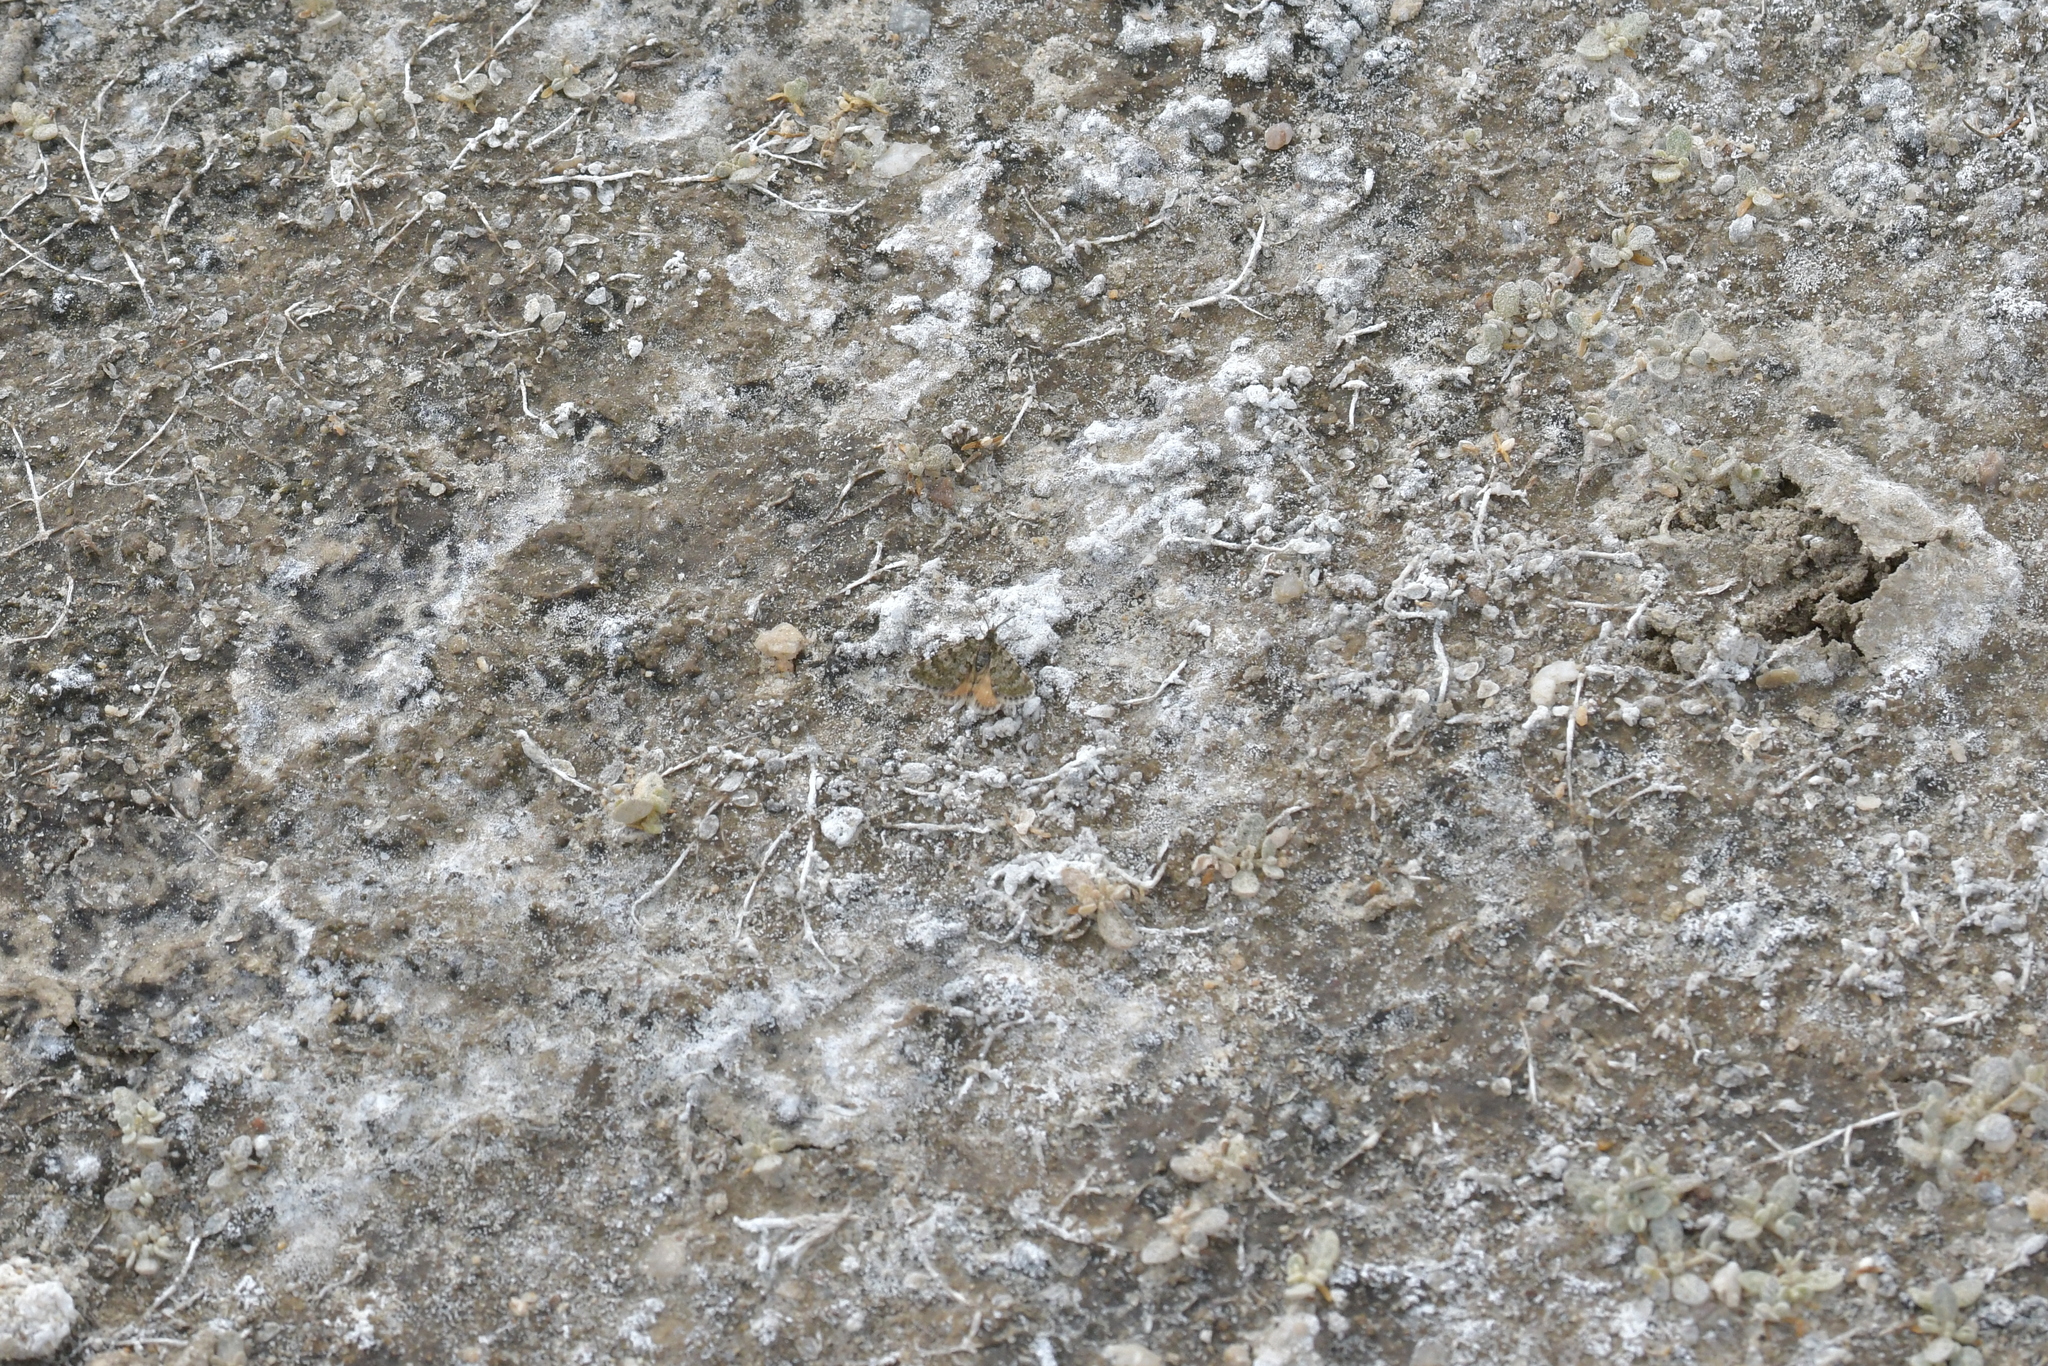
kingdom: Animalia
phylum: Arthropoda
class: Insecta
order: Lepidoptera
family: Geometridae
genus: Paranotoreas
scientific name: Paranotoreas fulva
